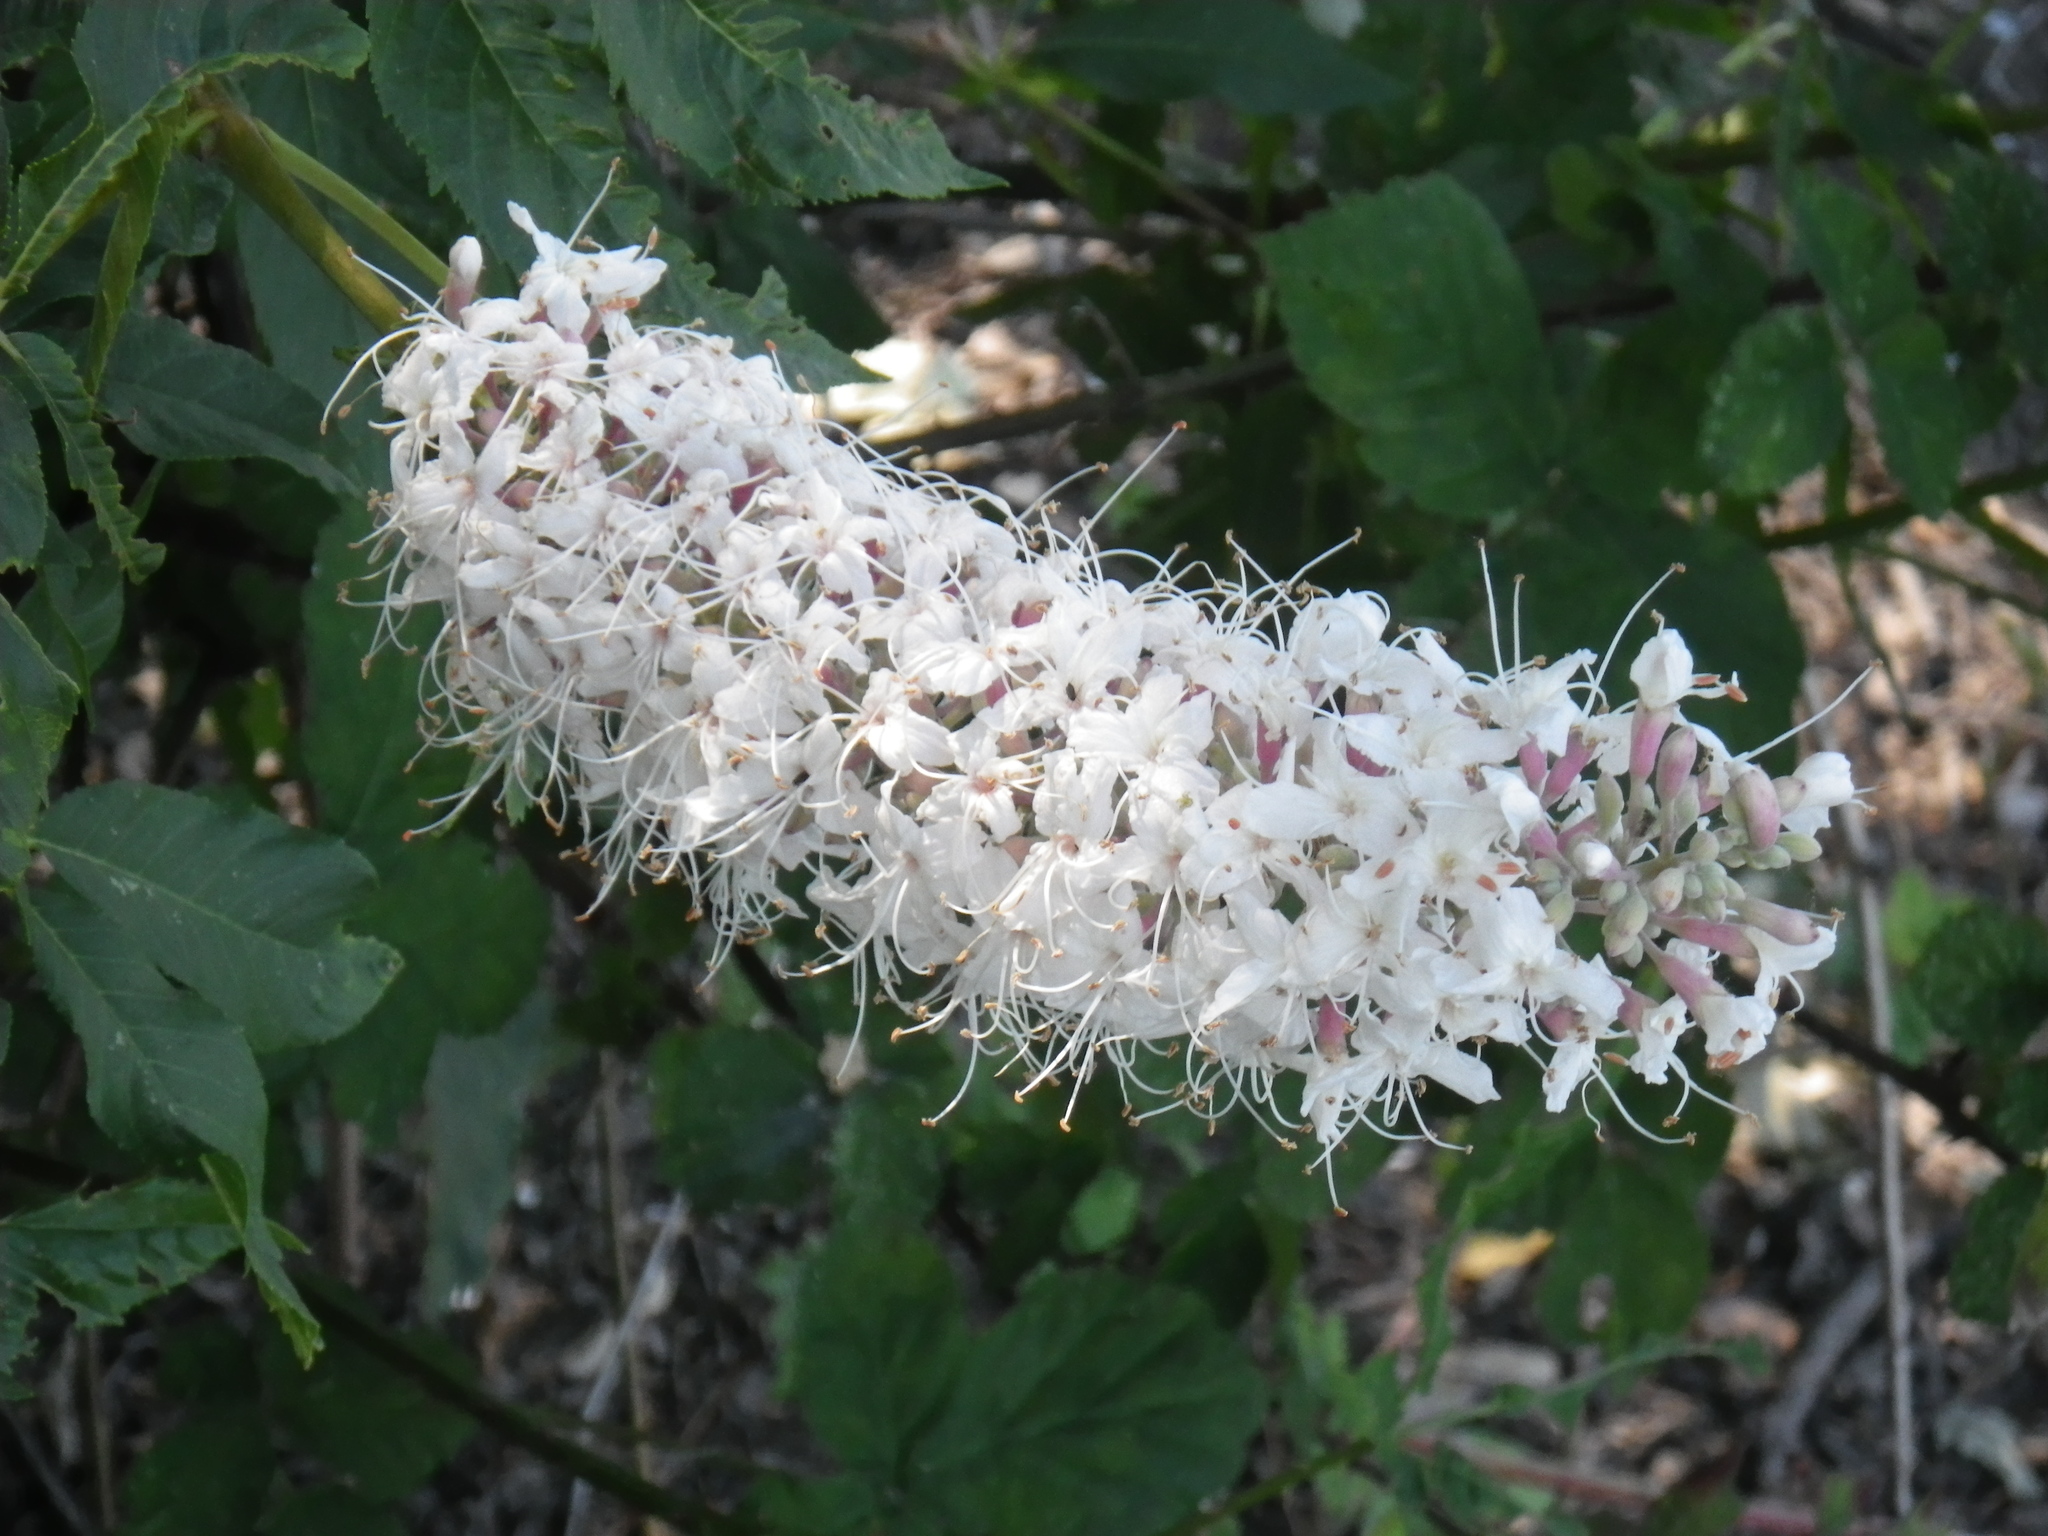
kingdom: Plantae
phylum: Tracheophyta
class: Magnoliopsida
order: Sapindales
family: Sapindaceae
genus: Aesculus
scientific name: Aesculus californica
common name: California buckeye
